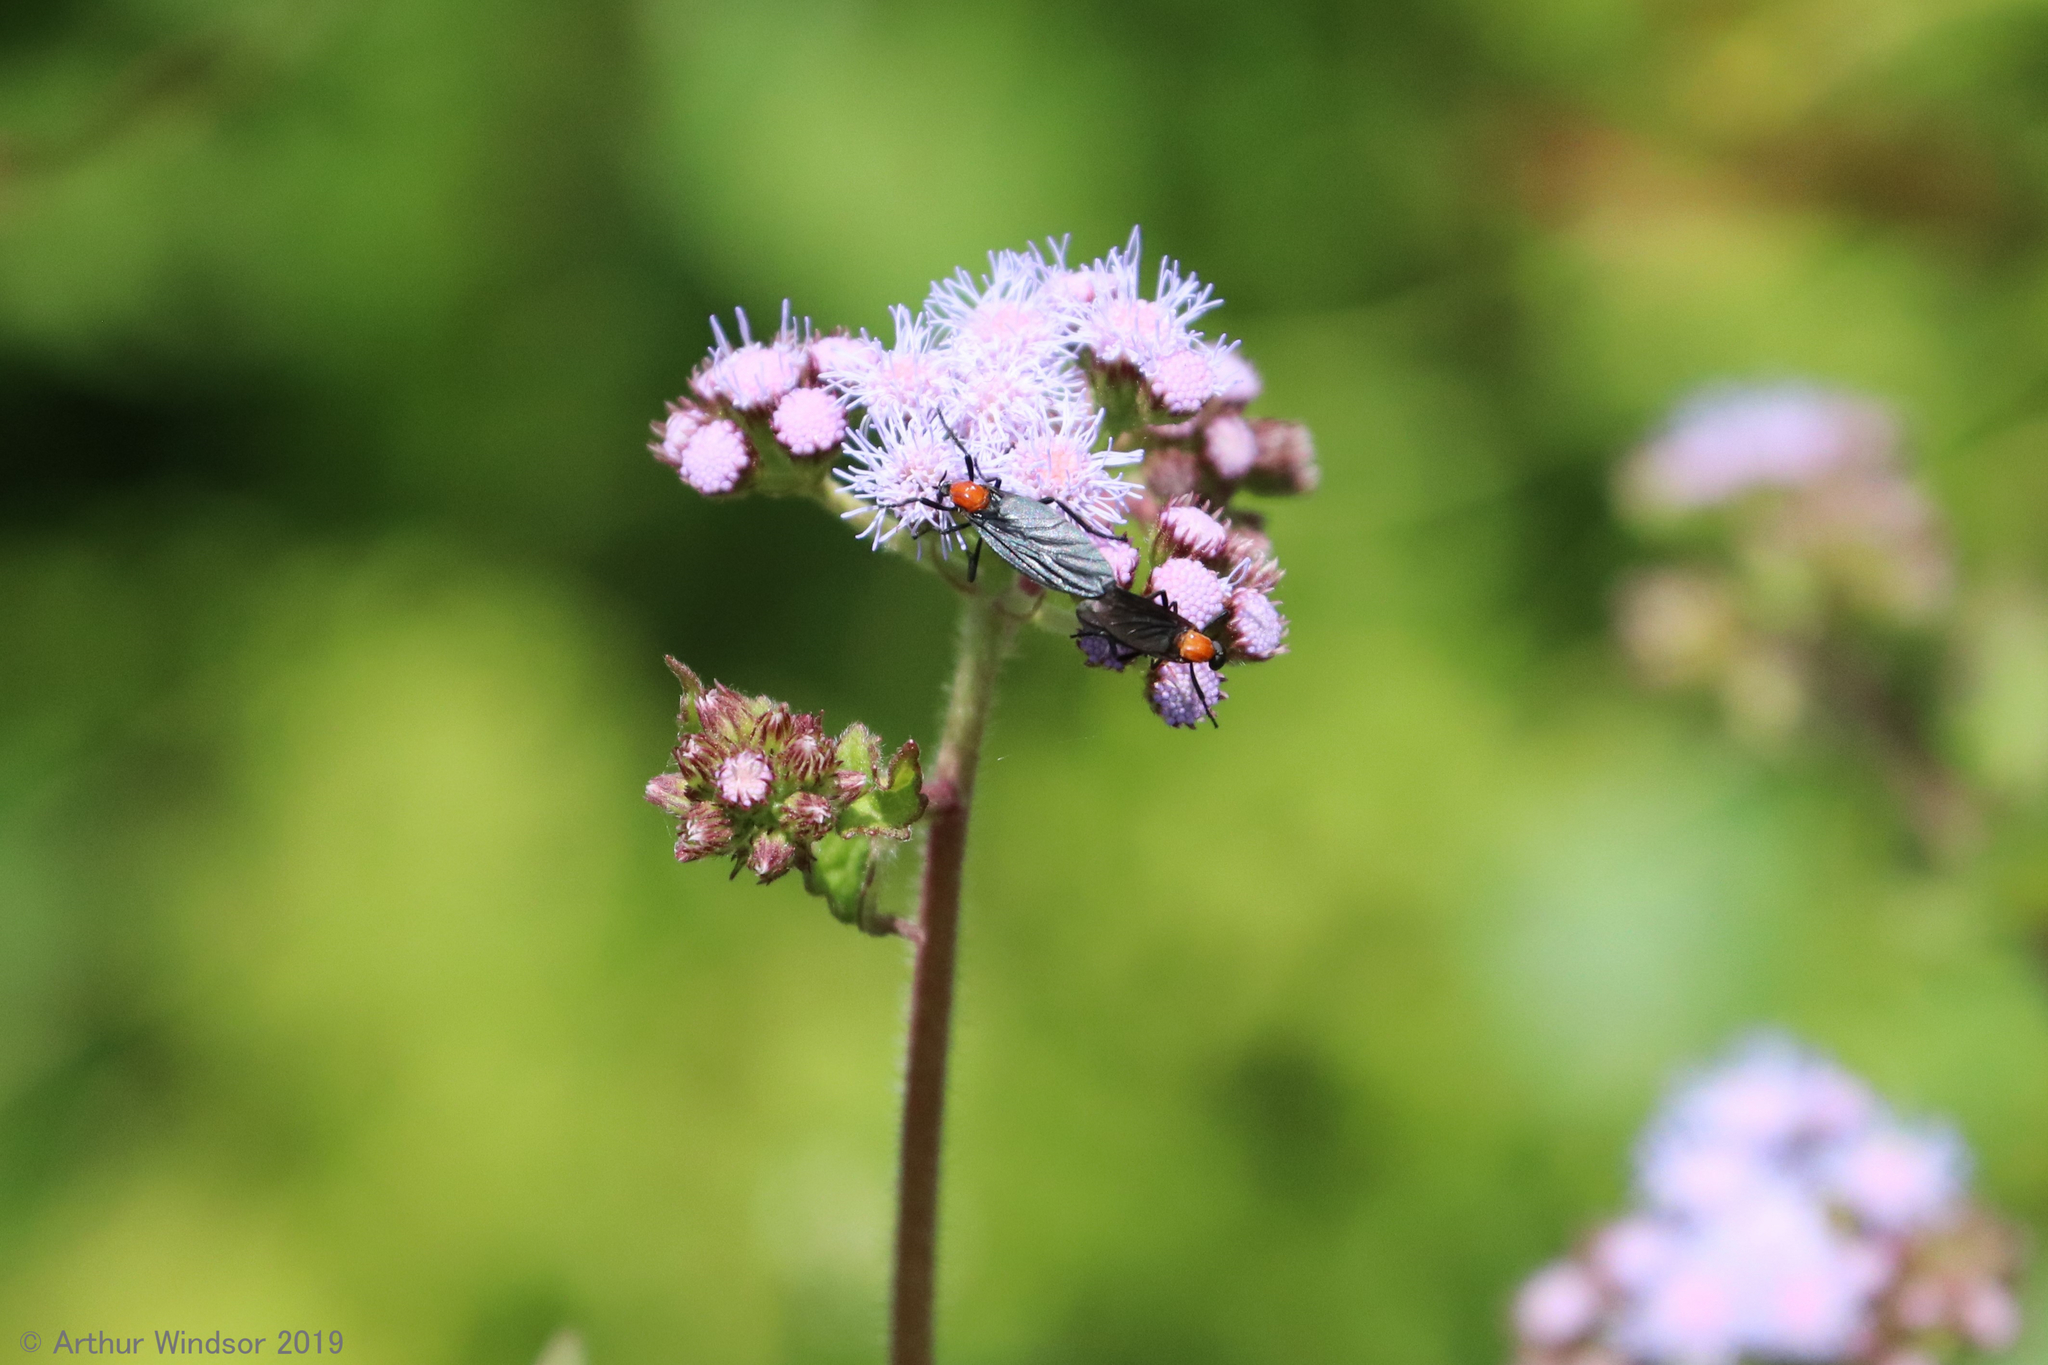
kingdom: Animalia
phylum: Arthropoda
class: Insecta
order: Diptera
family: Bibionidae
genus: Plecia
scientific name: Plecia nearctica
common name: March fly
